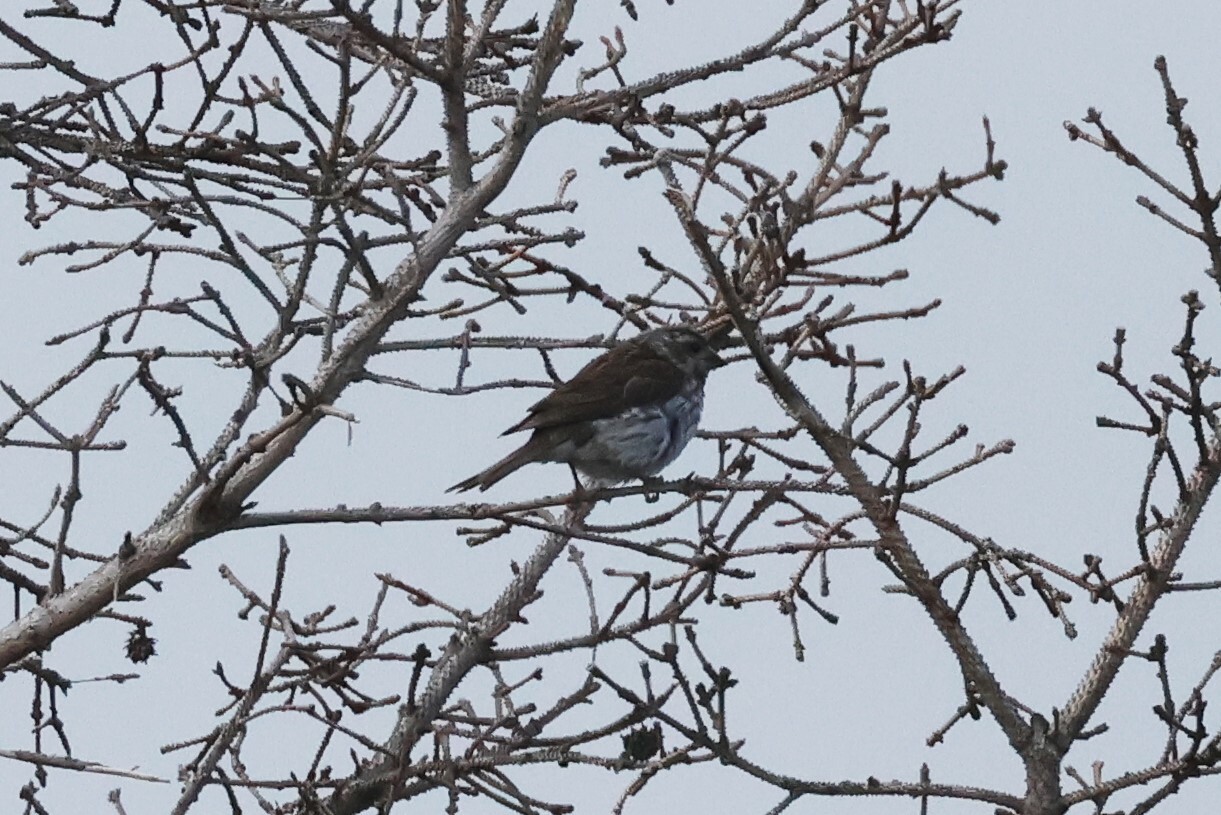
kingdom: Animalia
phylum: Chordata
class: Aves
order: Passeriformes
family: Fringillidae
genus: Haemorhous
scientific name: Haemorhous purpureus
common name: Purple finch
